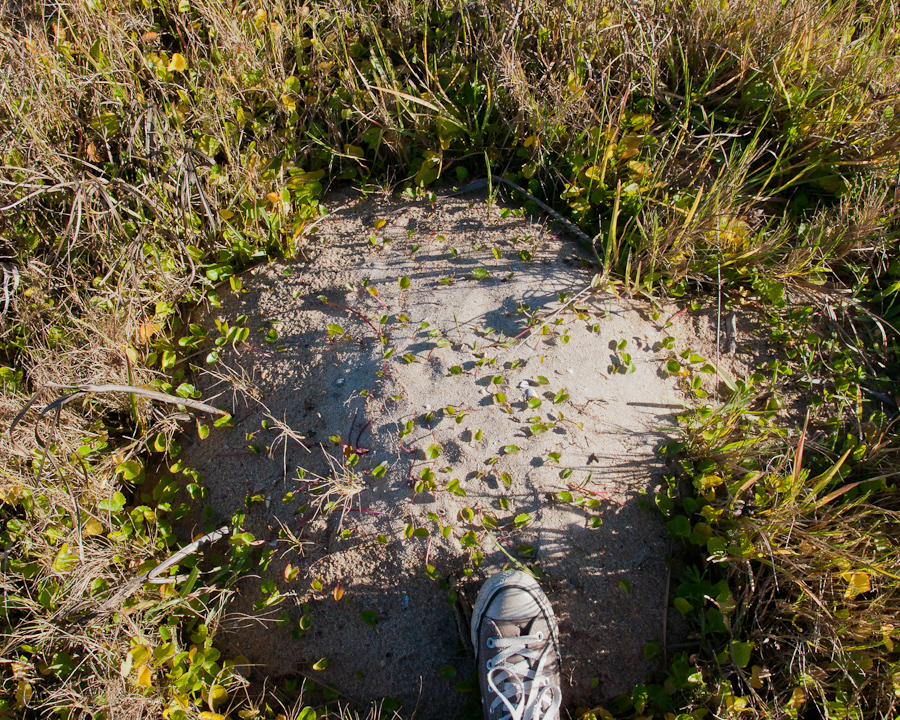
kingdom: Animalia
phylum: Chordata
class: Mammalia
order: Rodentia
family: Bathyergidae
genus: Bathyergus
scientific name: Bathyergus suillus
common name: Cape dune mole rat
